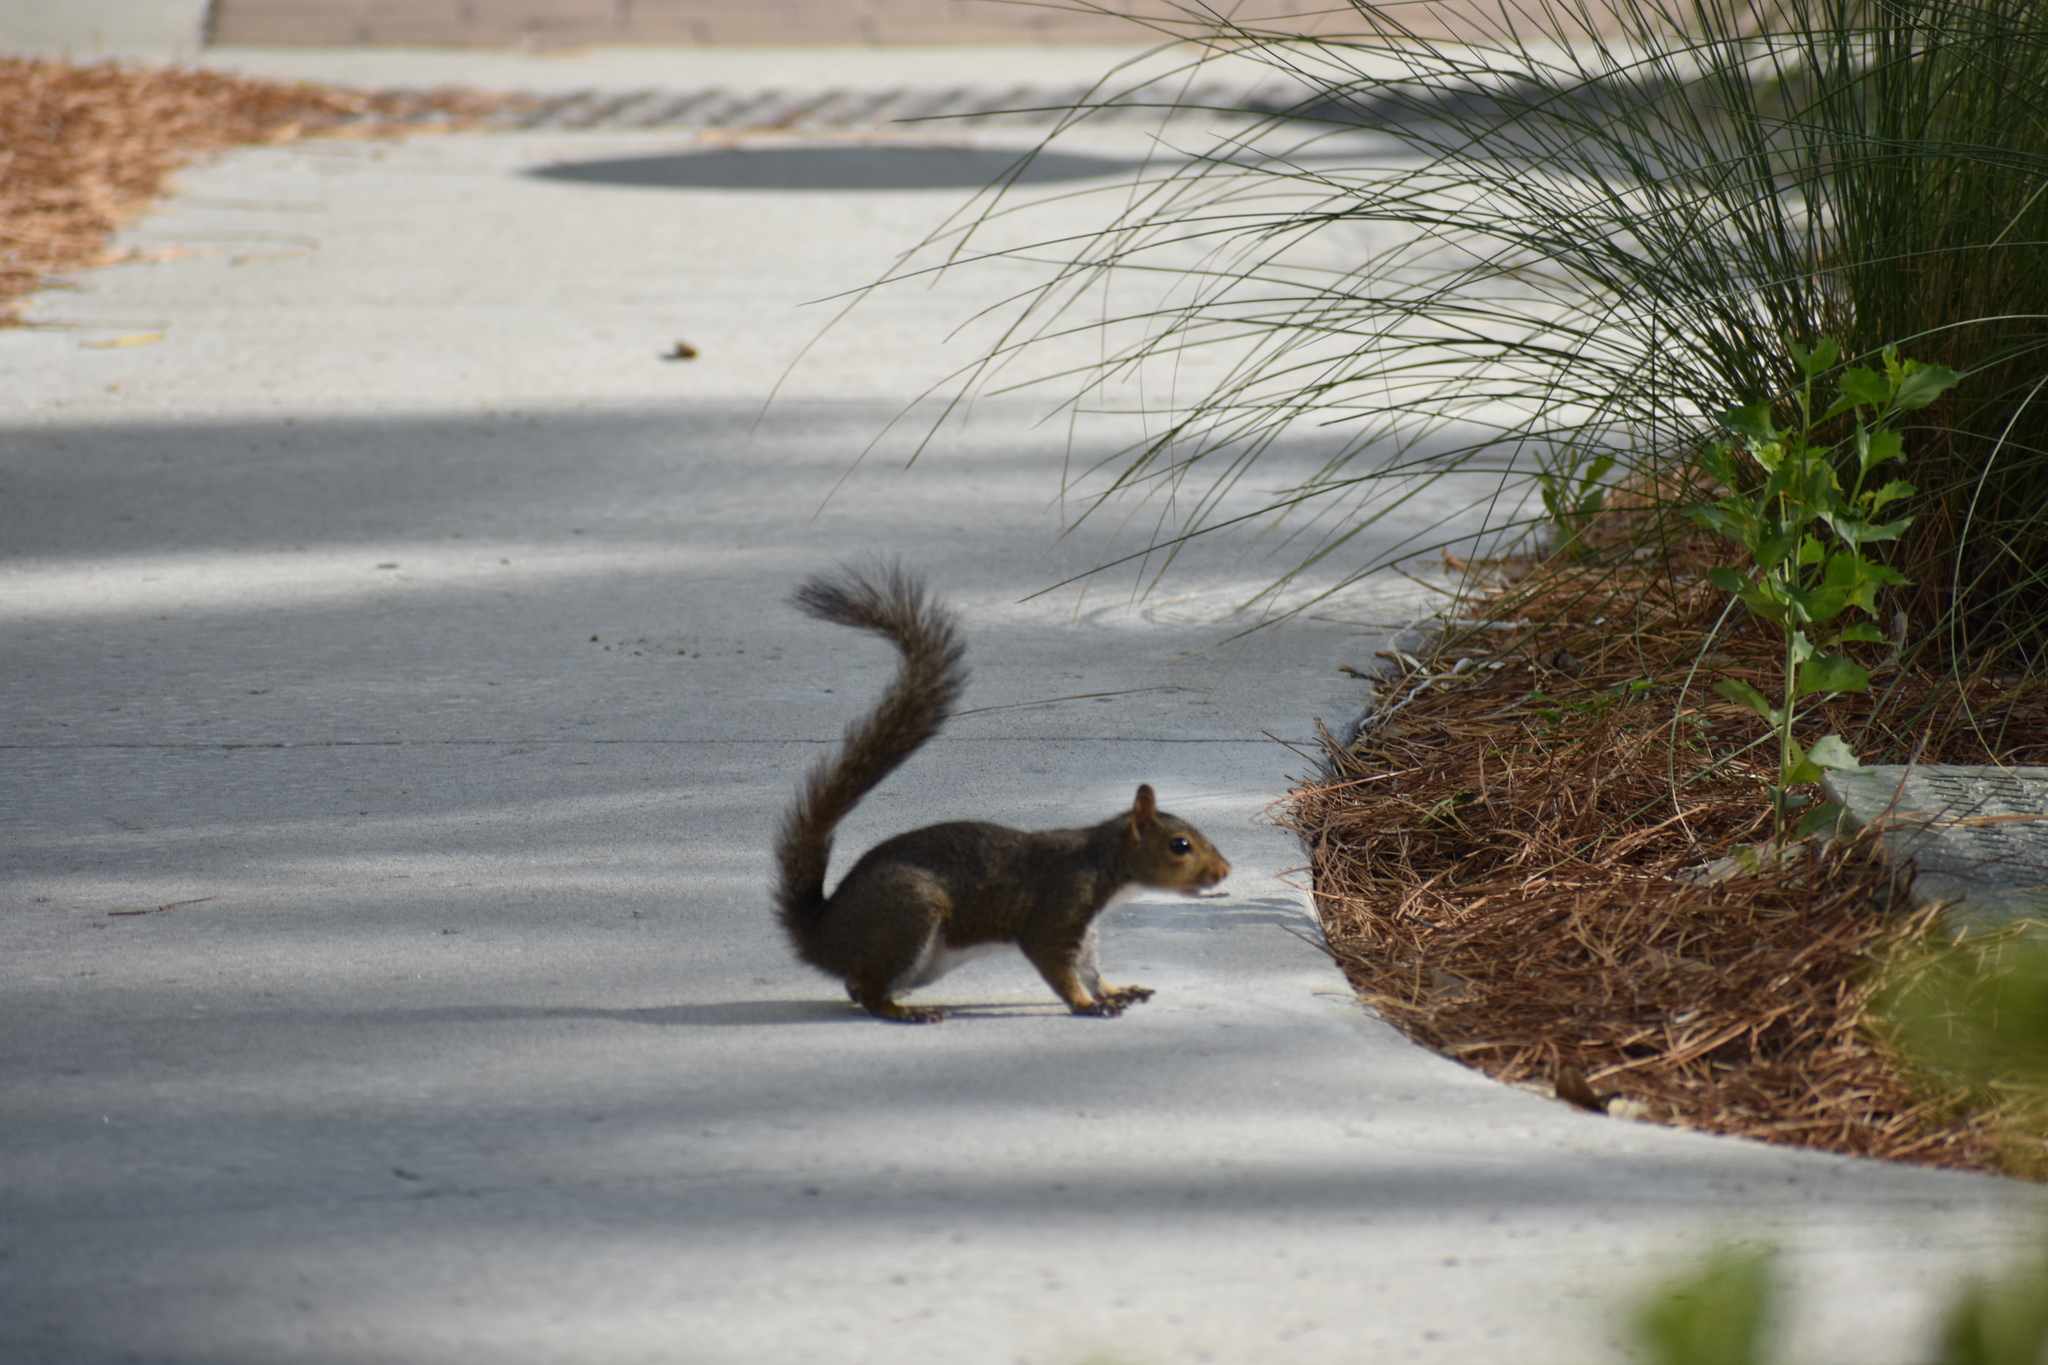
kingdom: Animalia
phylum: Chordata
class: Mammalia
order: Rodentia
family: Sciuridae
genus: Sciurus
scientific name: Sciurus carolinensis
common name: Eastern gray squirrel
